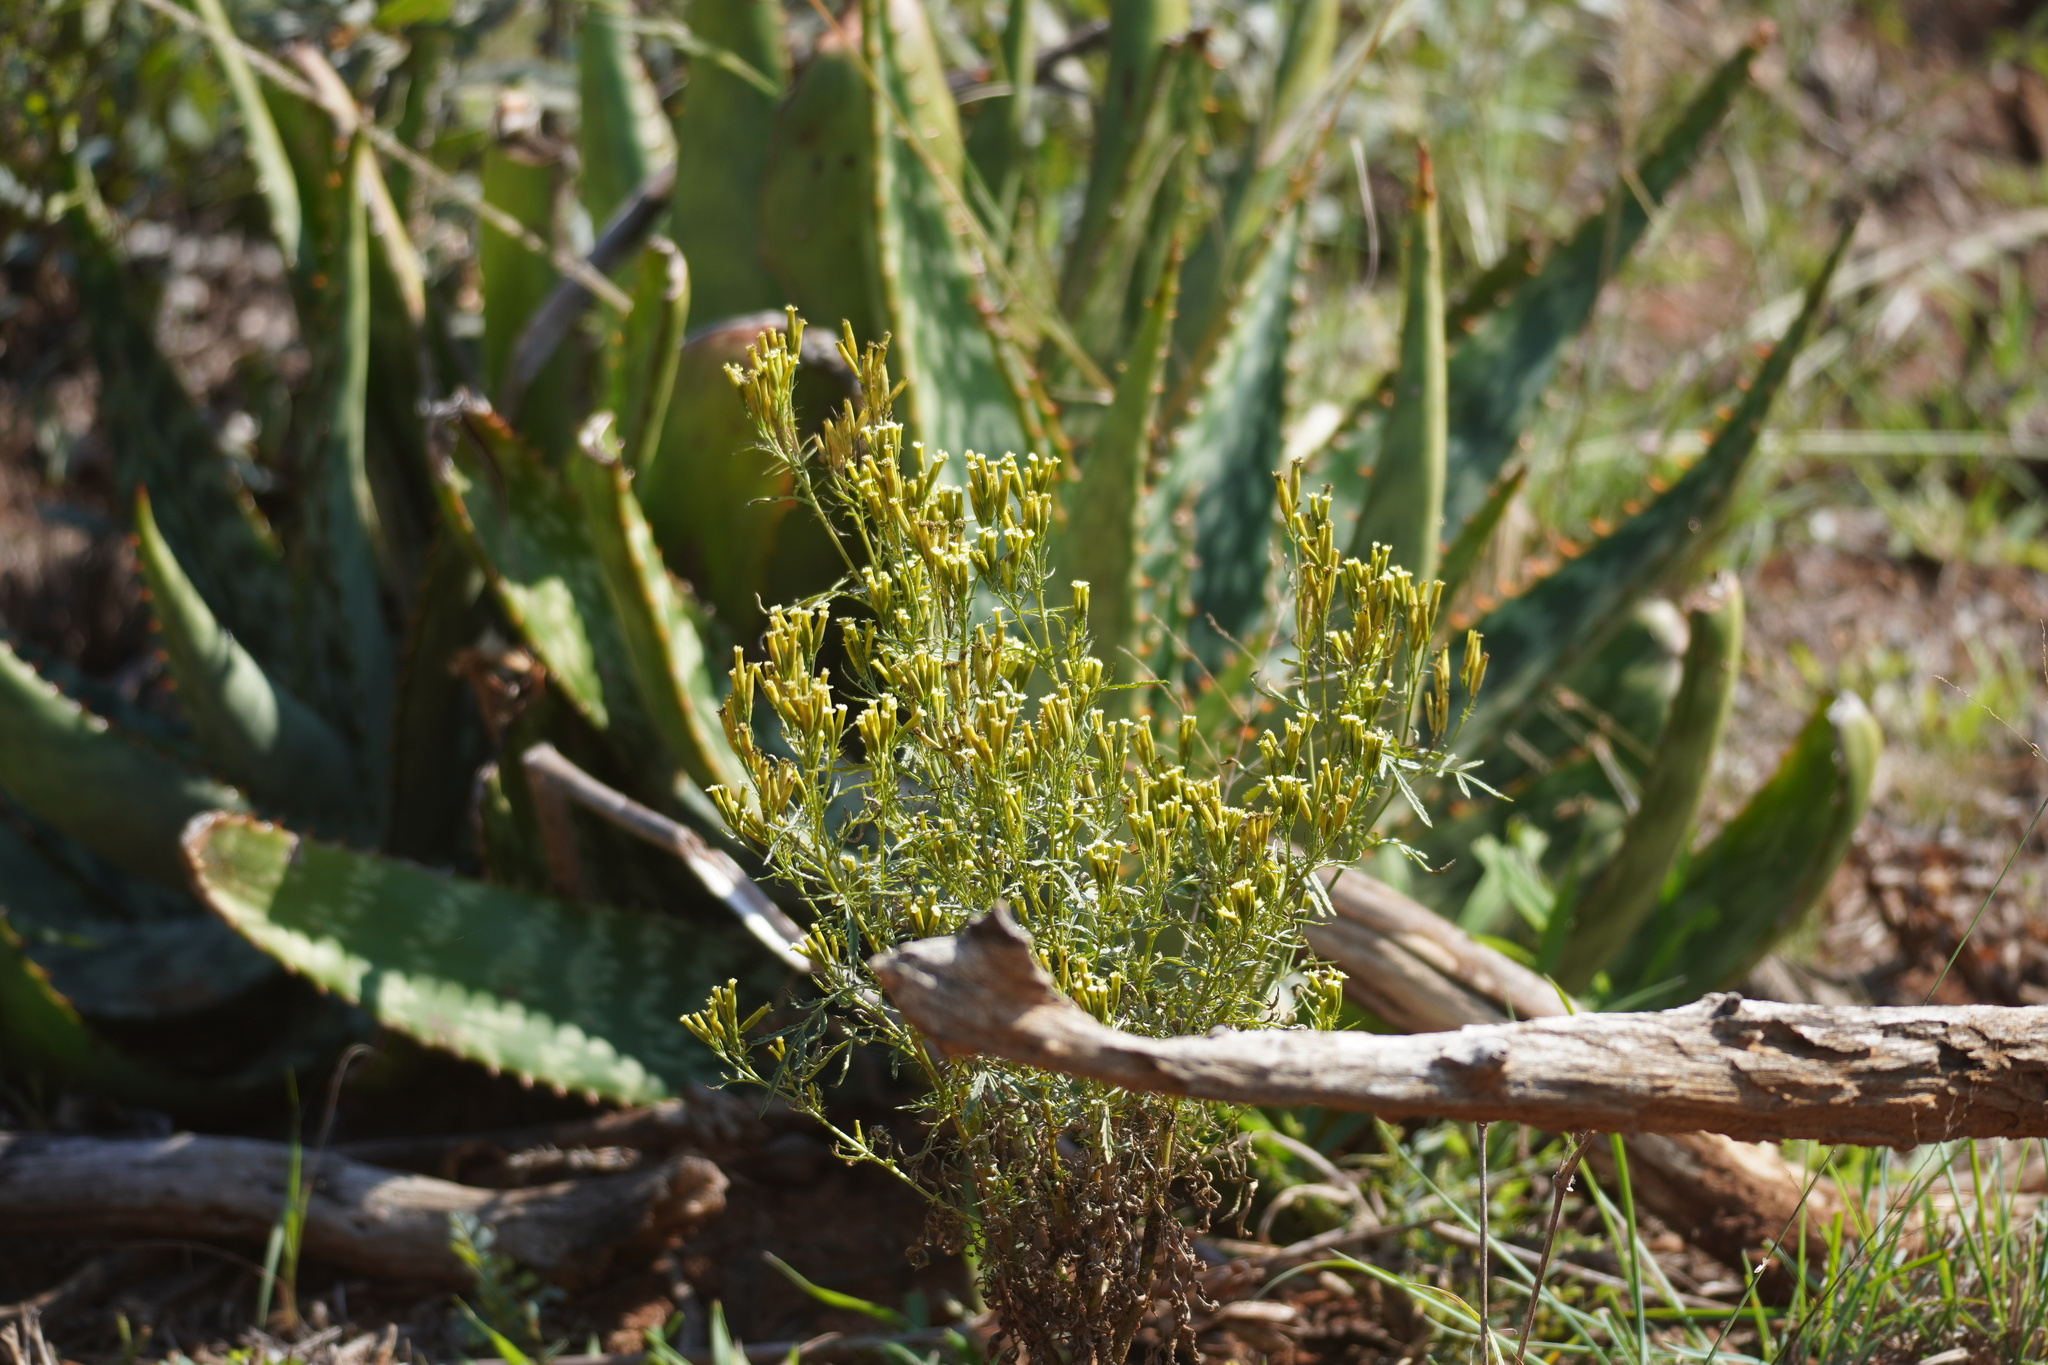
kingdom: Plantae
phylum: Tracheophyta
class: Magnoliopsida
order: Asterales
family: Asteraceae
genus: Tagetes
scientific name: Tagetes minuta
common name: Muster john henry
